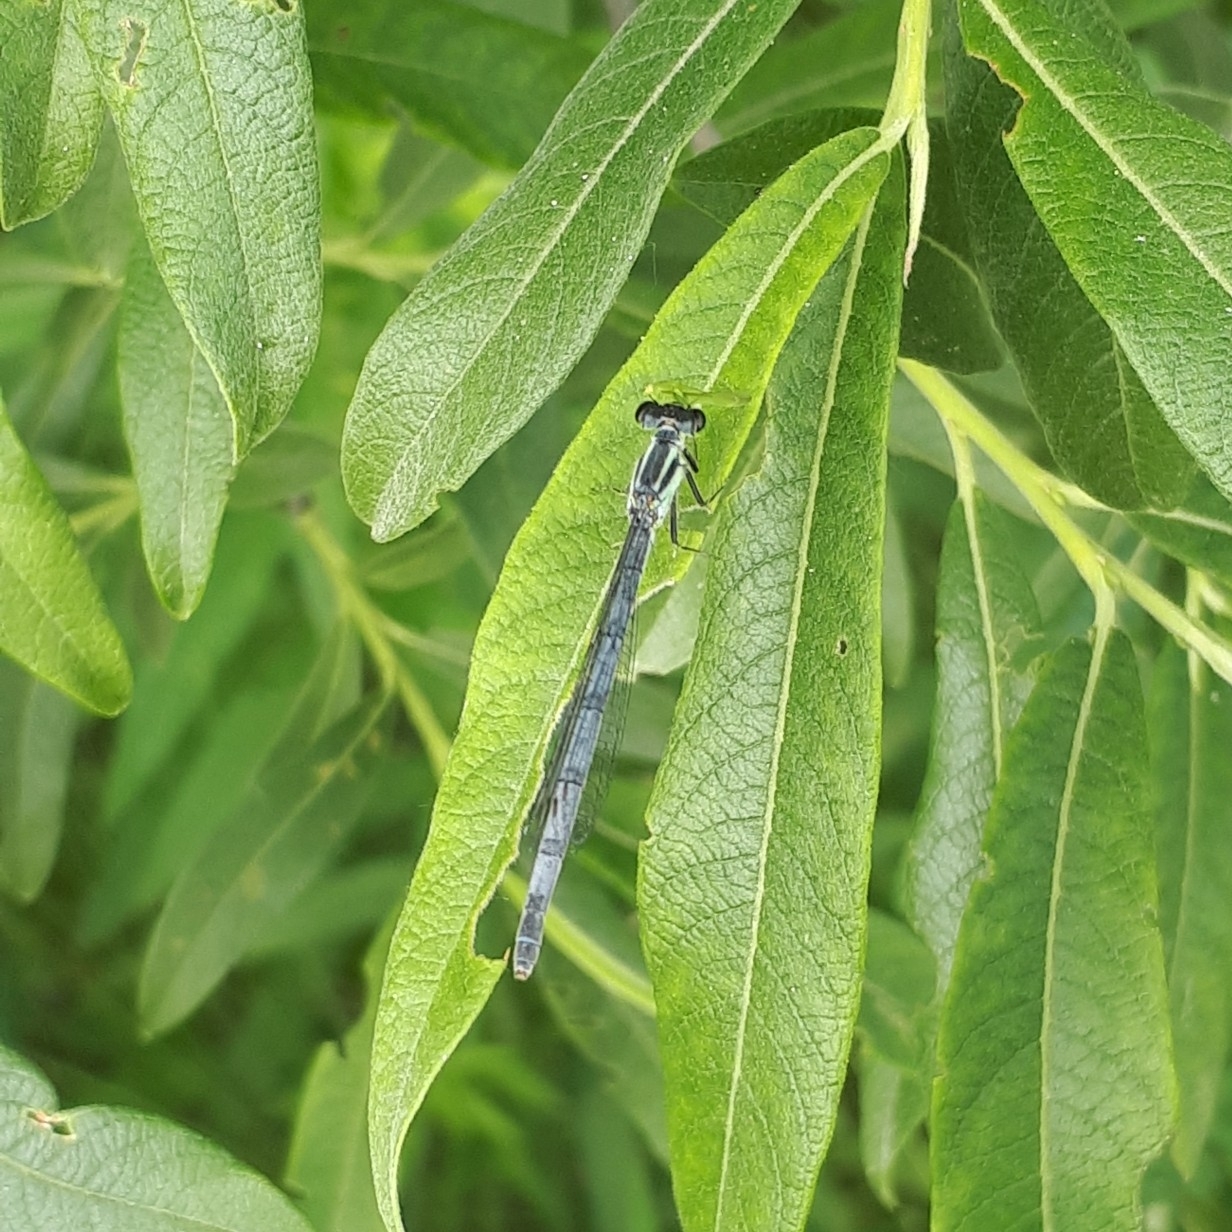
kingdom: Animalia
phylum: Arthropoda
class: Insecta
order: Odonata
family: Coenagrionidae
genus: Ischnura
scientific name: Ischnura verticalis
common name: Eastern forktail
